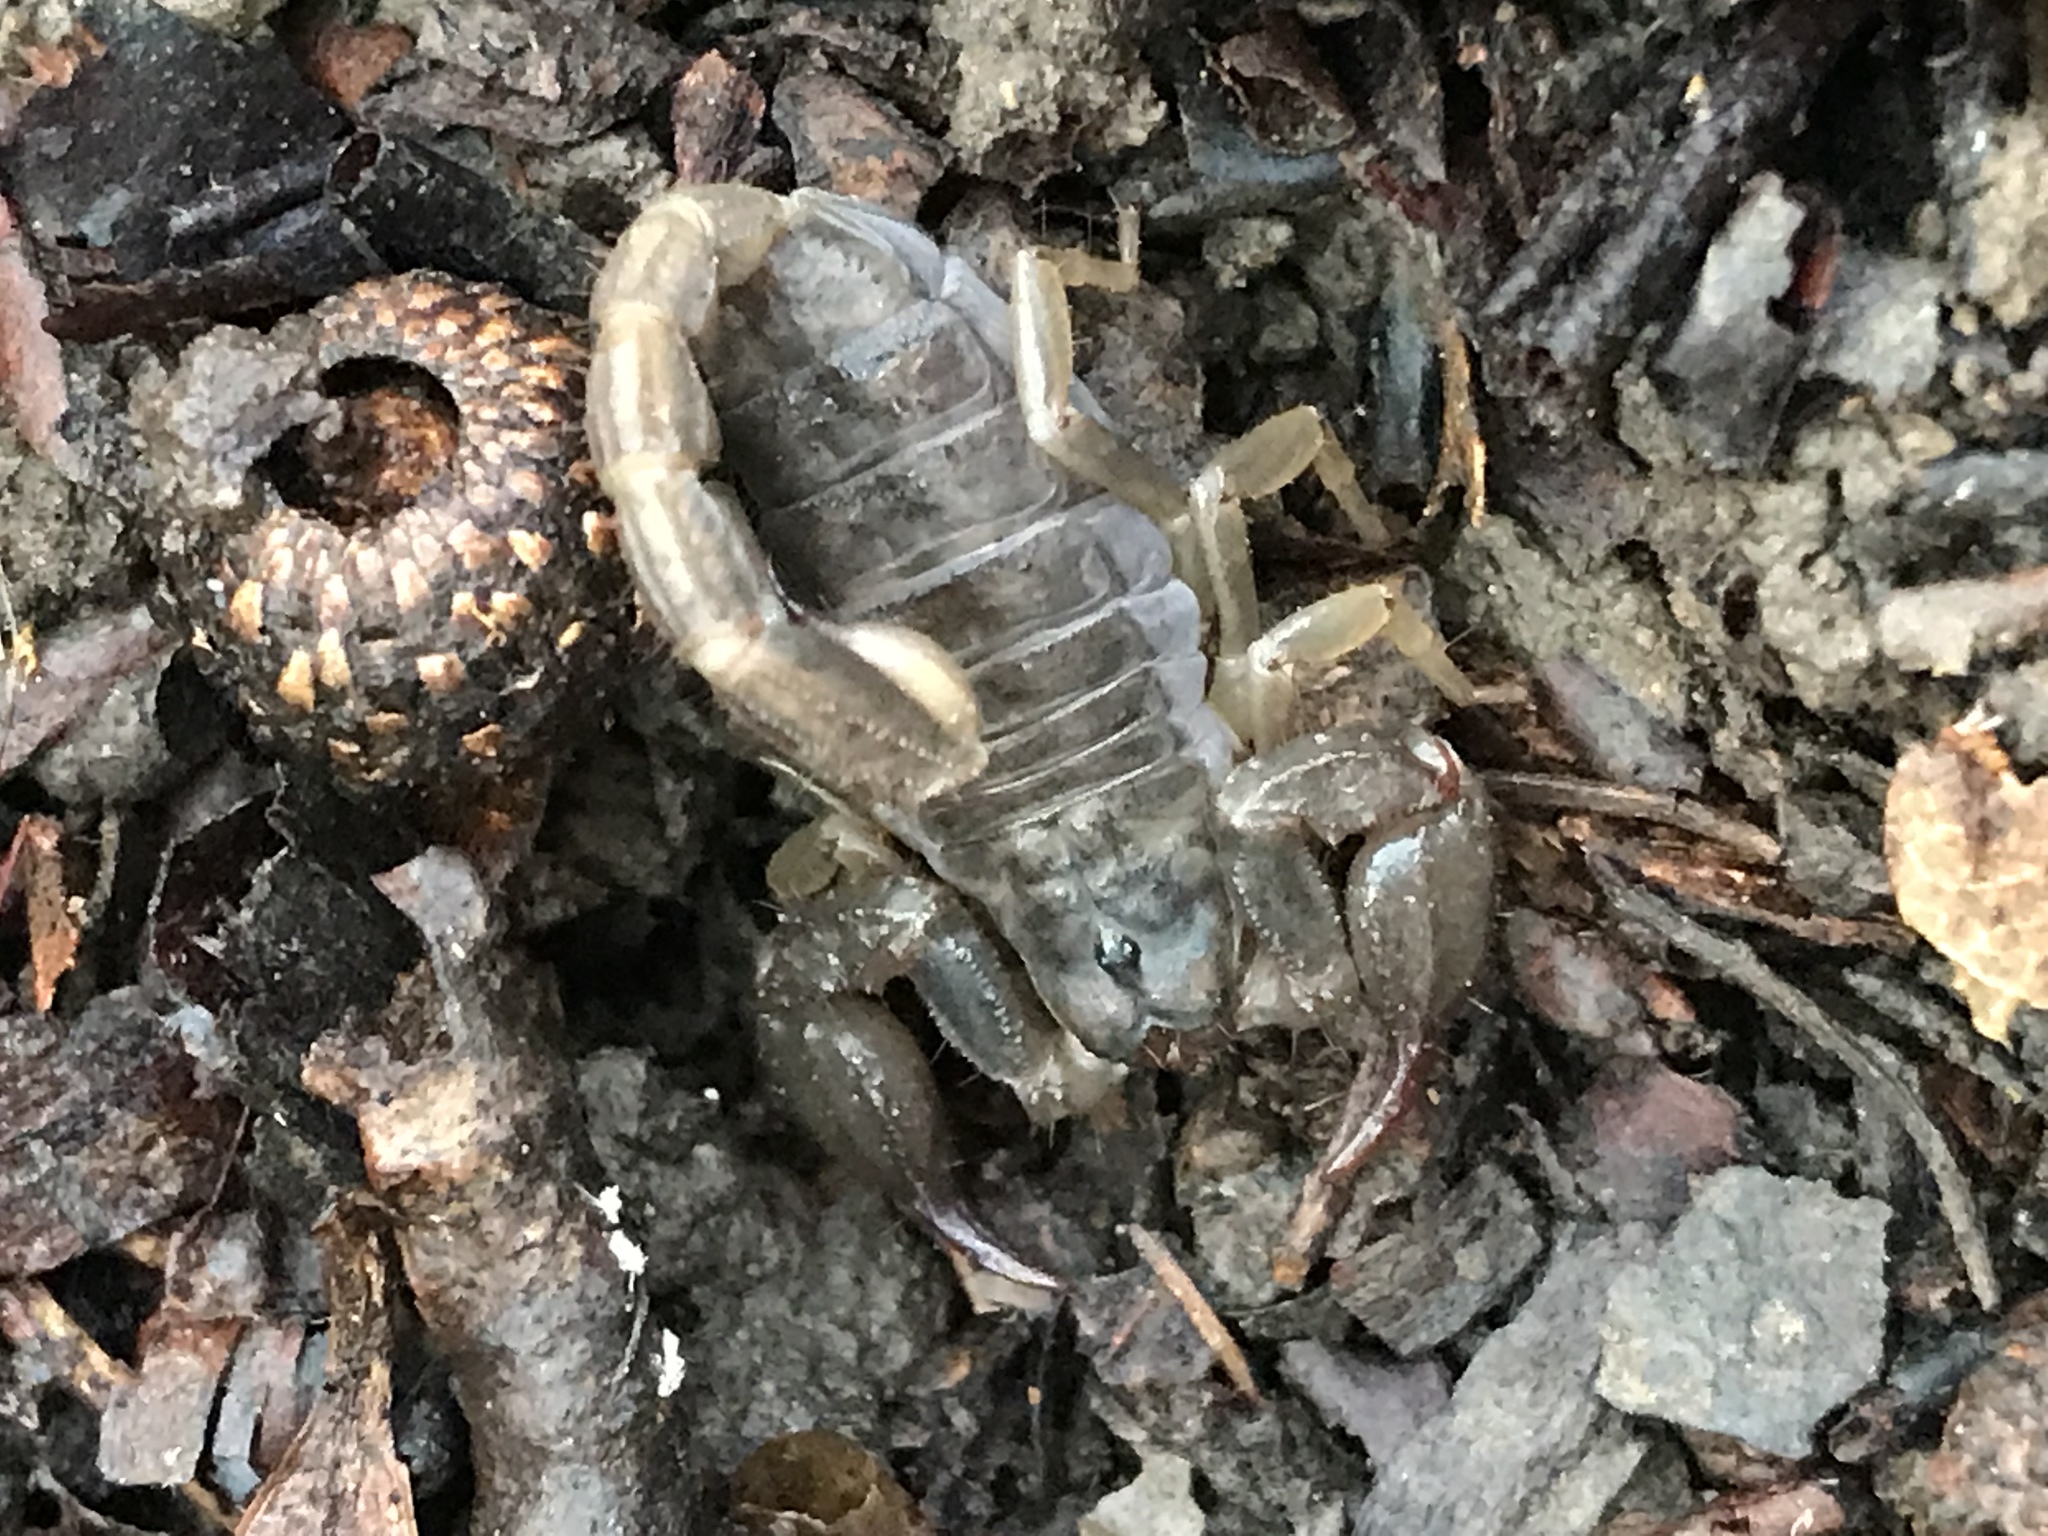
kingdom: Animalia
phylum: Arthropoda
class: Arachnida
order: Scorpiones
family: Chactidae
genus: Uroctonus
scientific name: Uroctonus mordax
